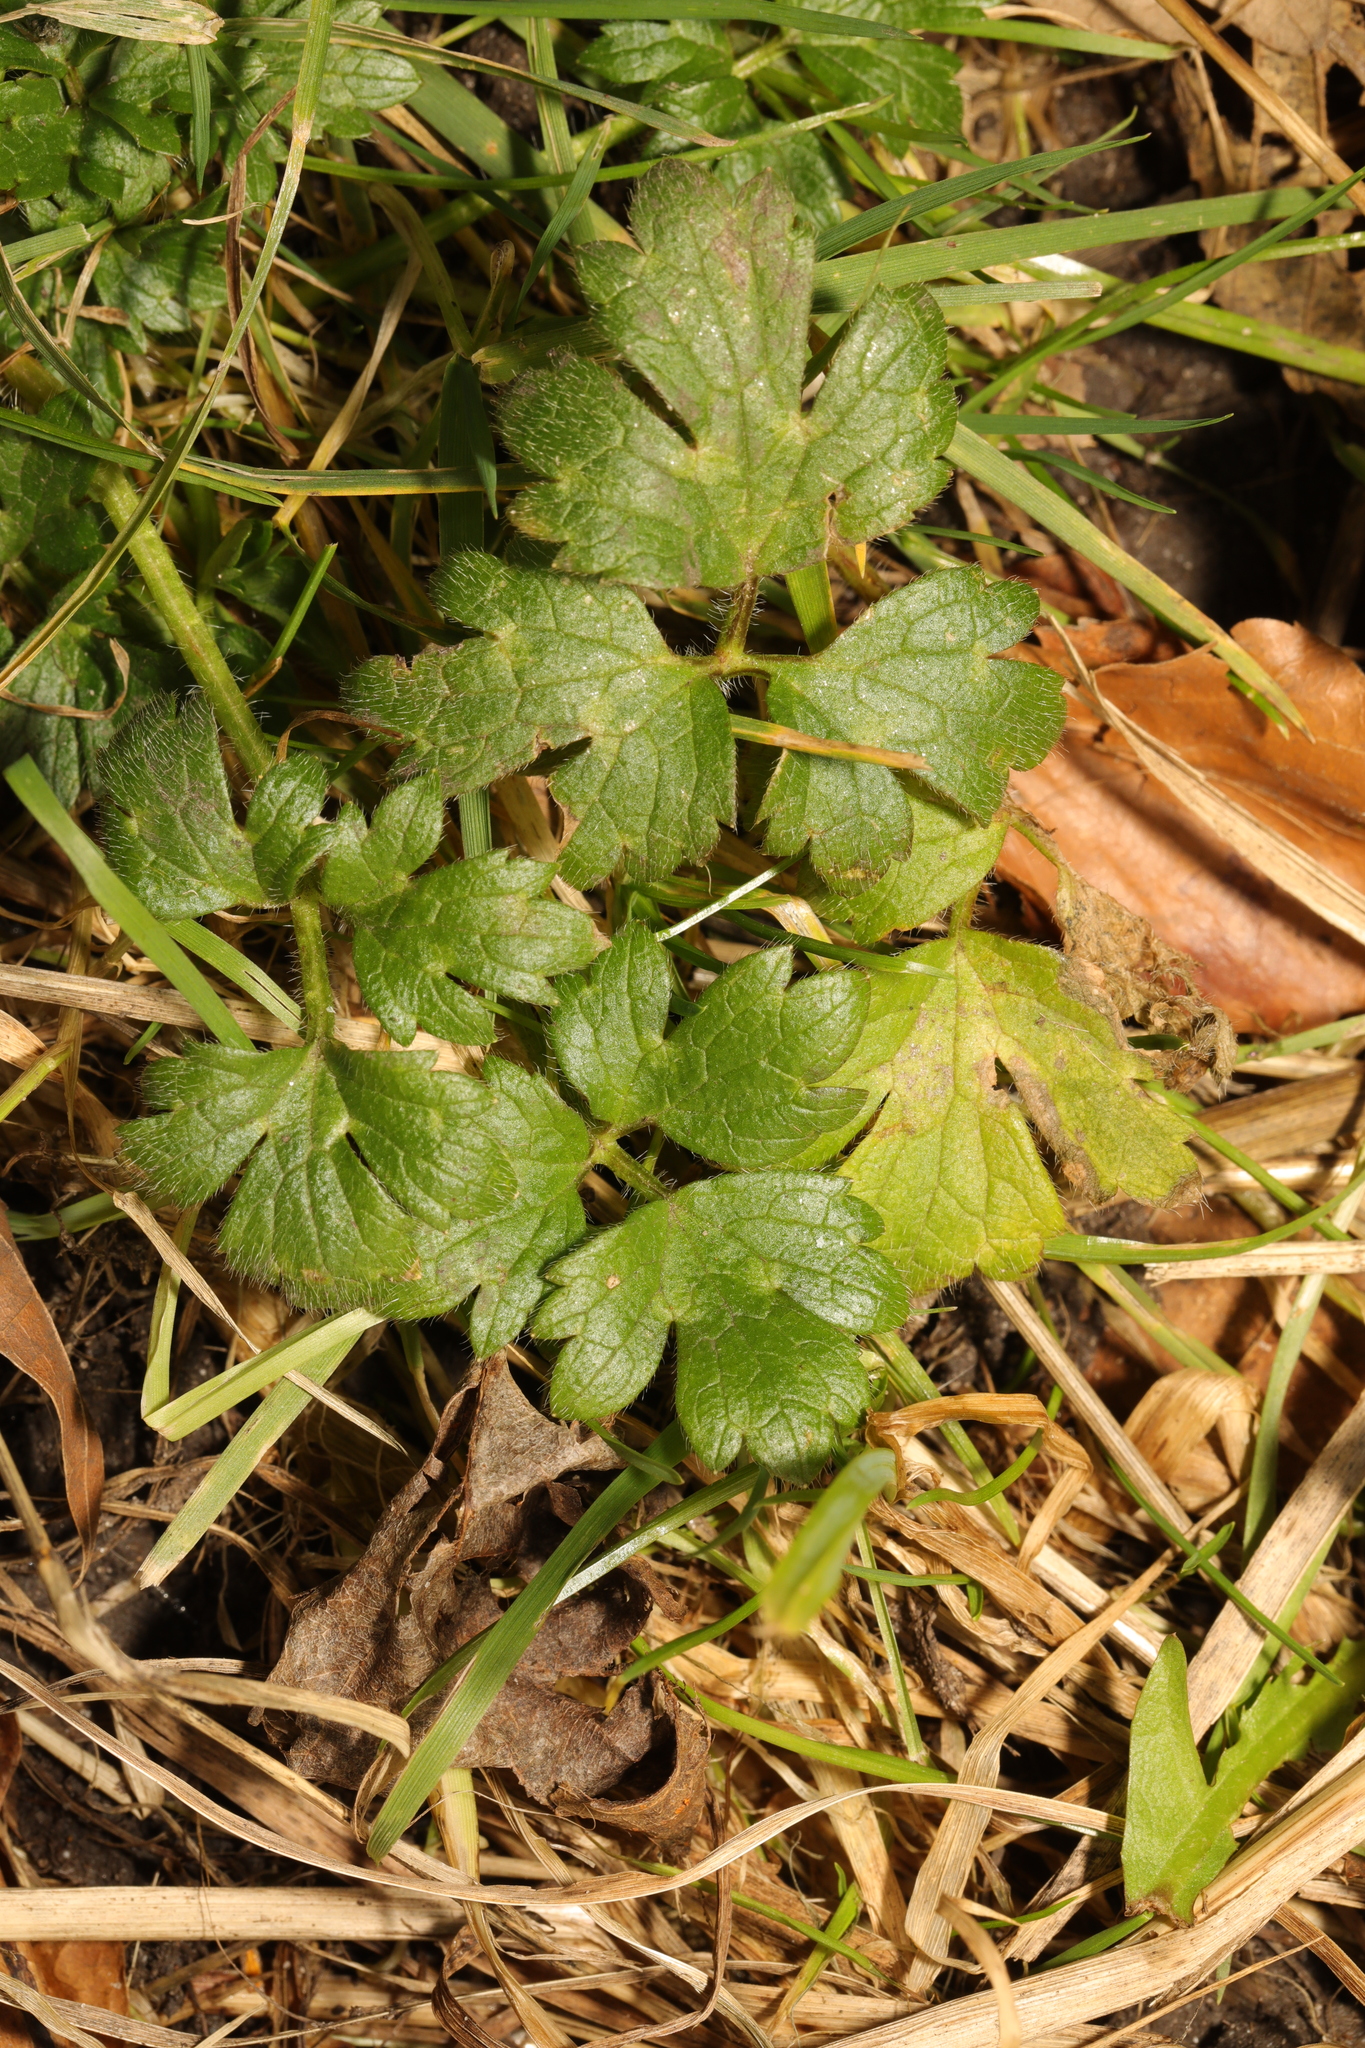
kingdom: Plantae
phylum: Tracheophyta
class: Magnoliopsida
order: Ranunculales
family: Ranunculaceae
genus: Ranunculus
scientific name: Ranunculus repens
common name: Creeping buttercup
